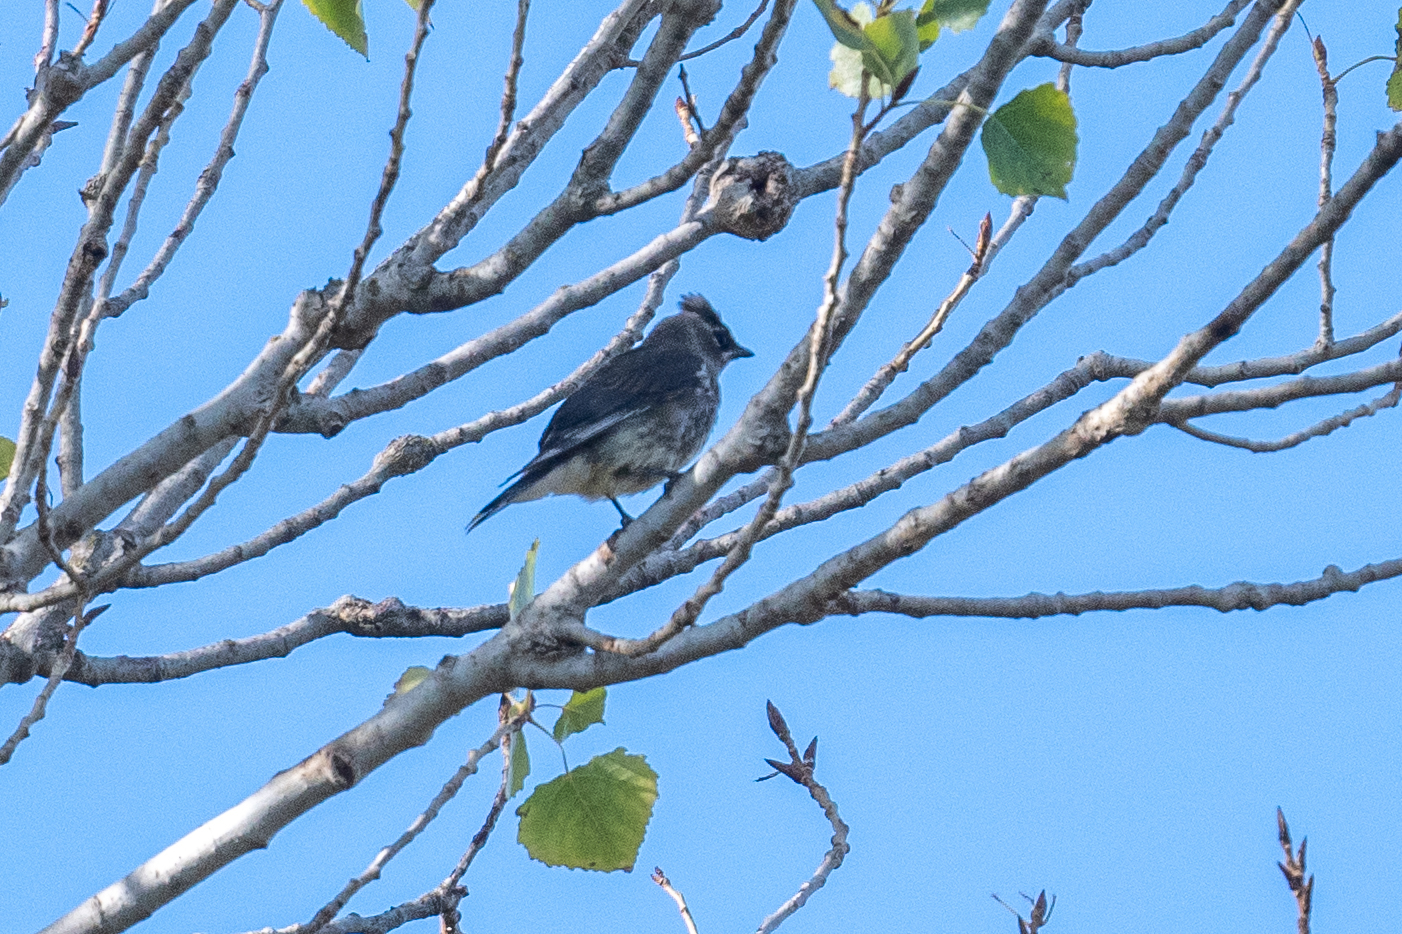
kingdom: Animalia
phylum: Chordata
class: Aves
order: Passeriformes
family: Bombycillidae
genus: Bombycilla
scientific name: Bombycilla cedrorum
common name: Cedar waxwing
